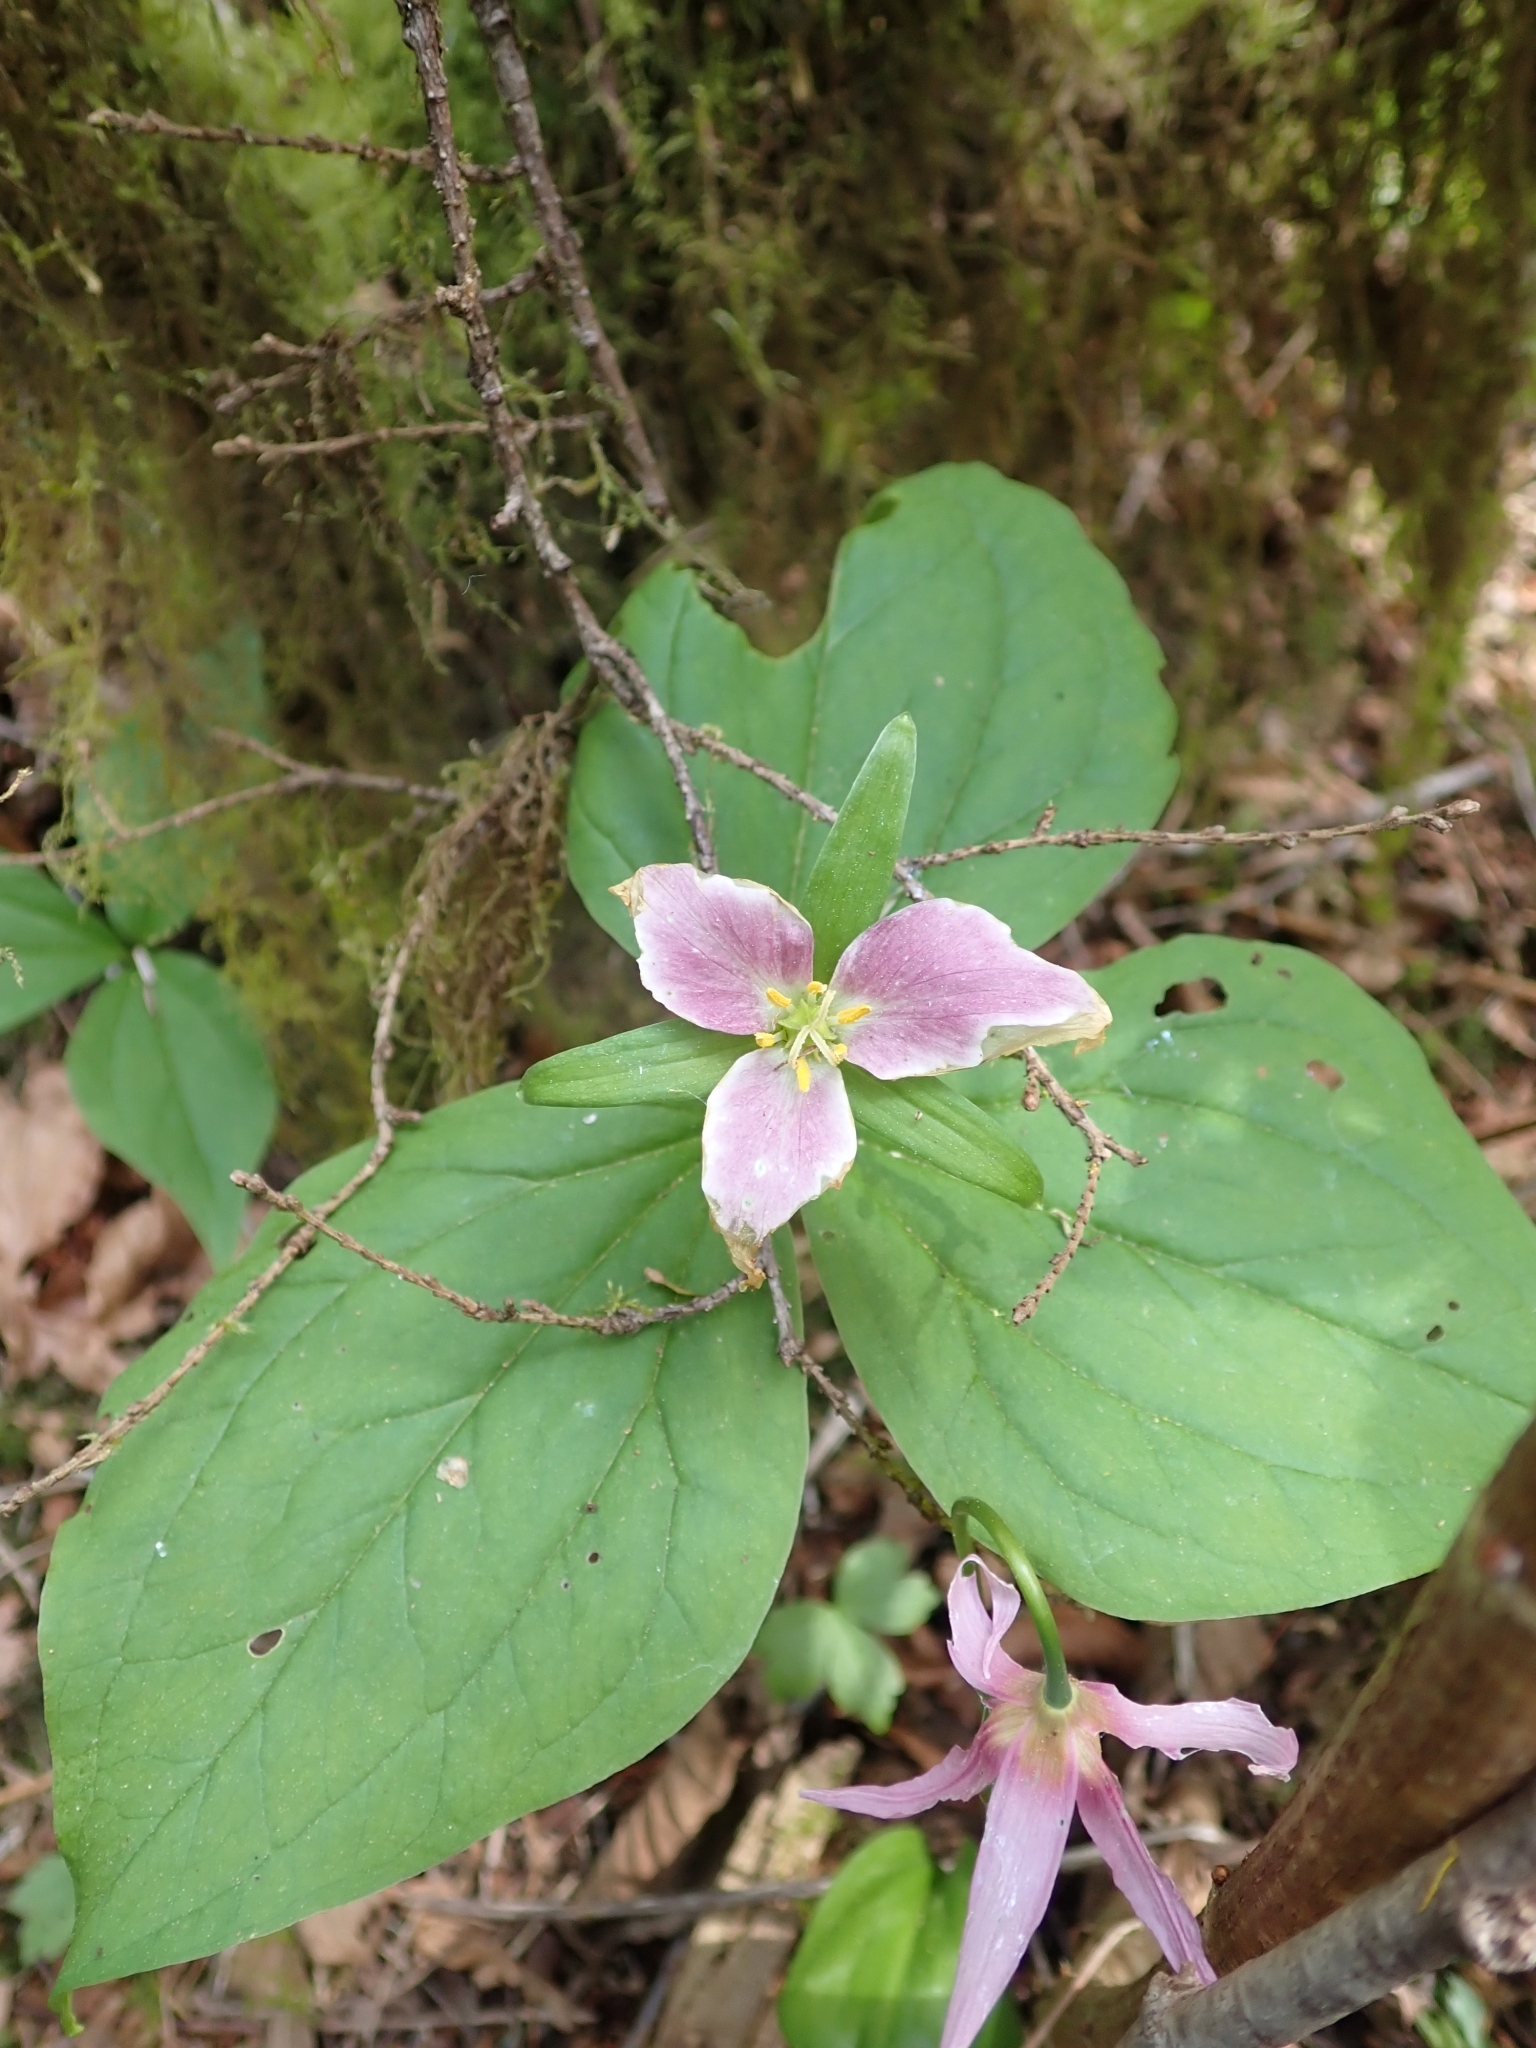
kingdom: Plantae
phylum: Tracheophyta
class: Liliopsida
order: Liliales
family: Melanthiaceae
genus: Trillium
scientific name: Trillium ovatum
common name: Pacific trillium
